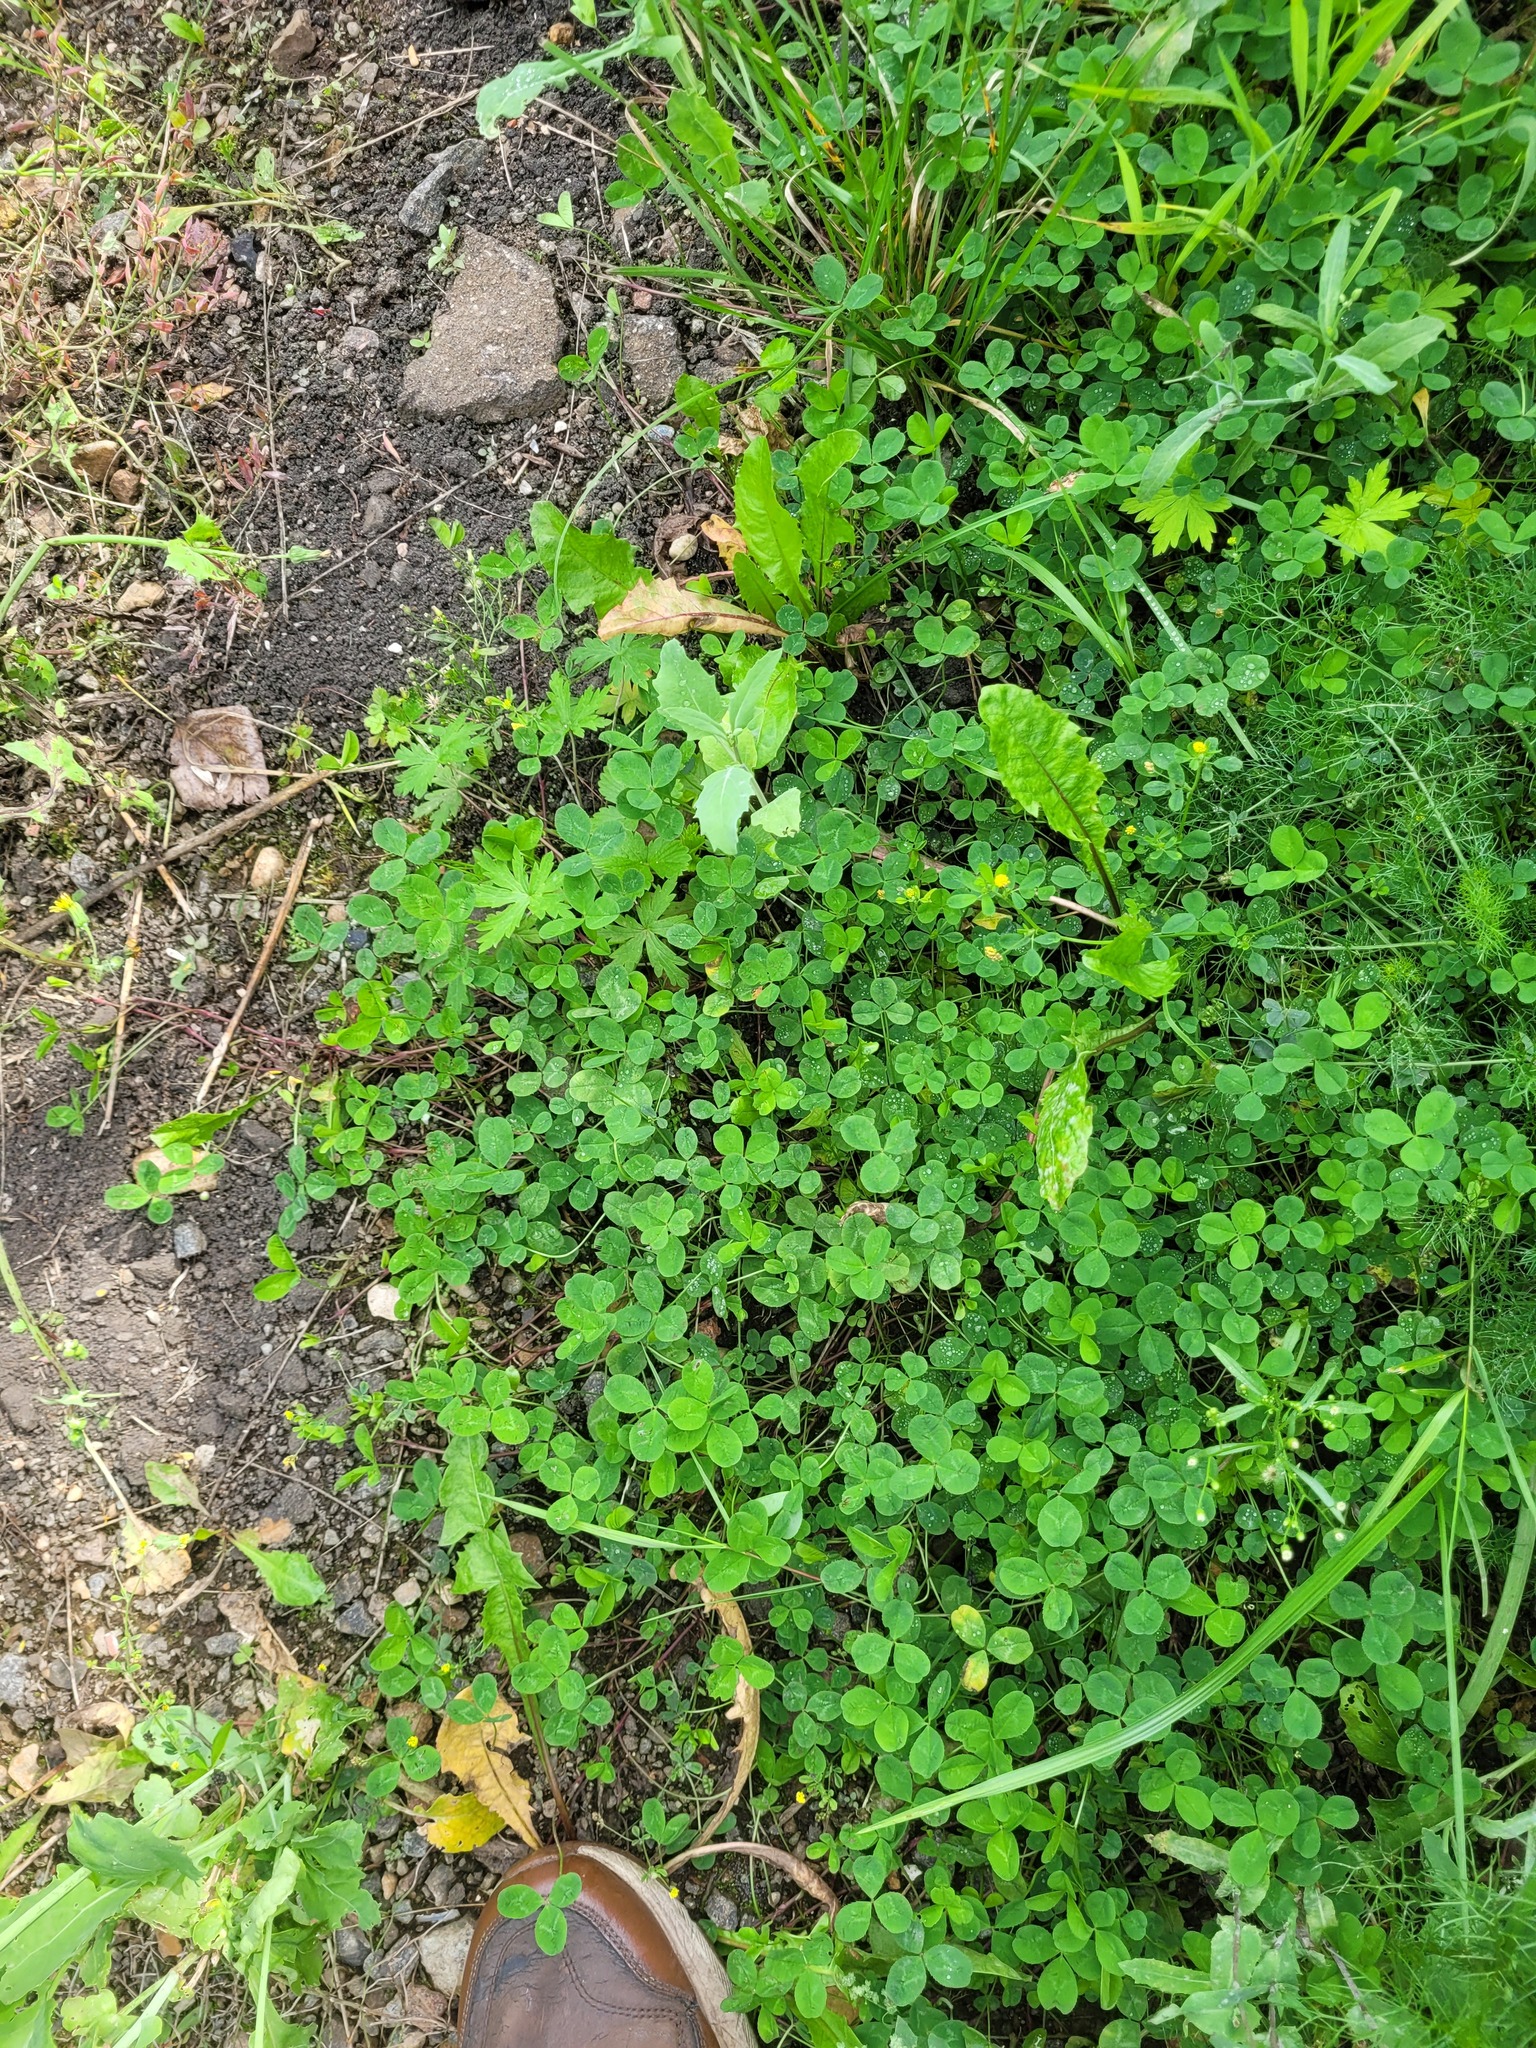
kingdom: Plantae
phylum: Tracheophyta
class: Magnoliopsida
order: Fabales
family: Fabaceae
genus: Trifolium
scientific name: Trifolium repens
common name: White clover
